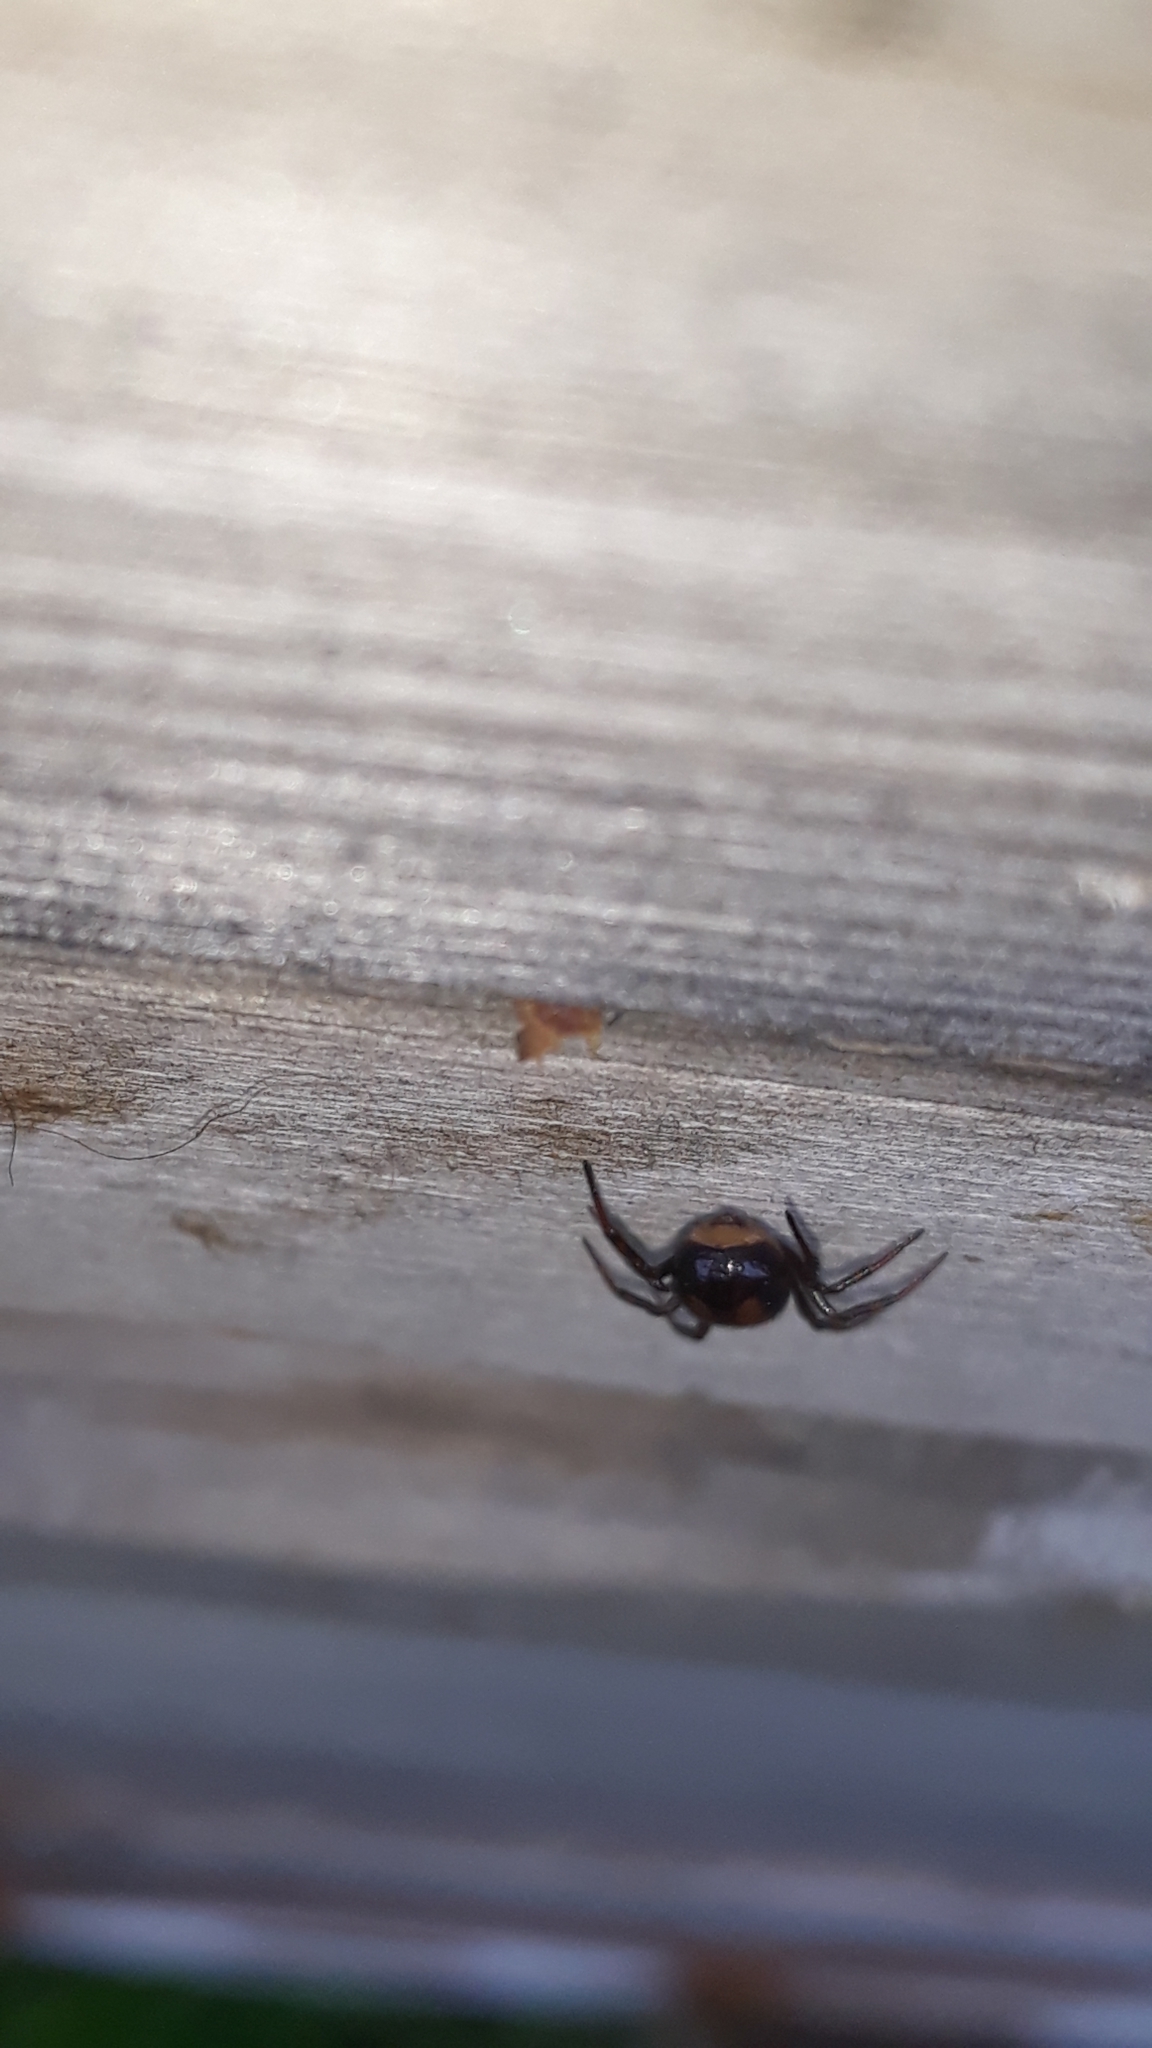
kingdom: Animalia
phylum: Arthropoda
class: Arachnida
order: Araneae
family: Theridiidae
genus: Steatoda
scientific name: Steatoda bipunctata
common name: False widow
